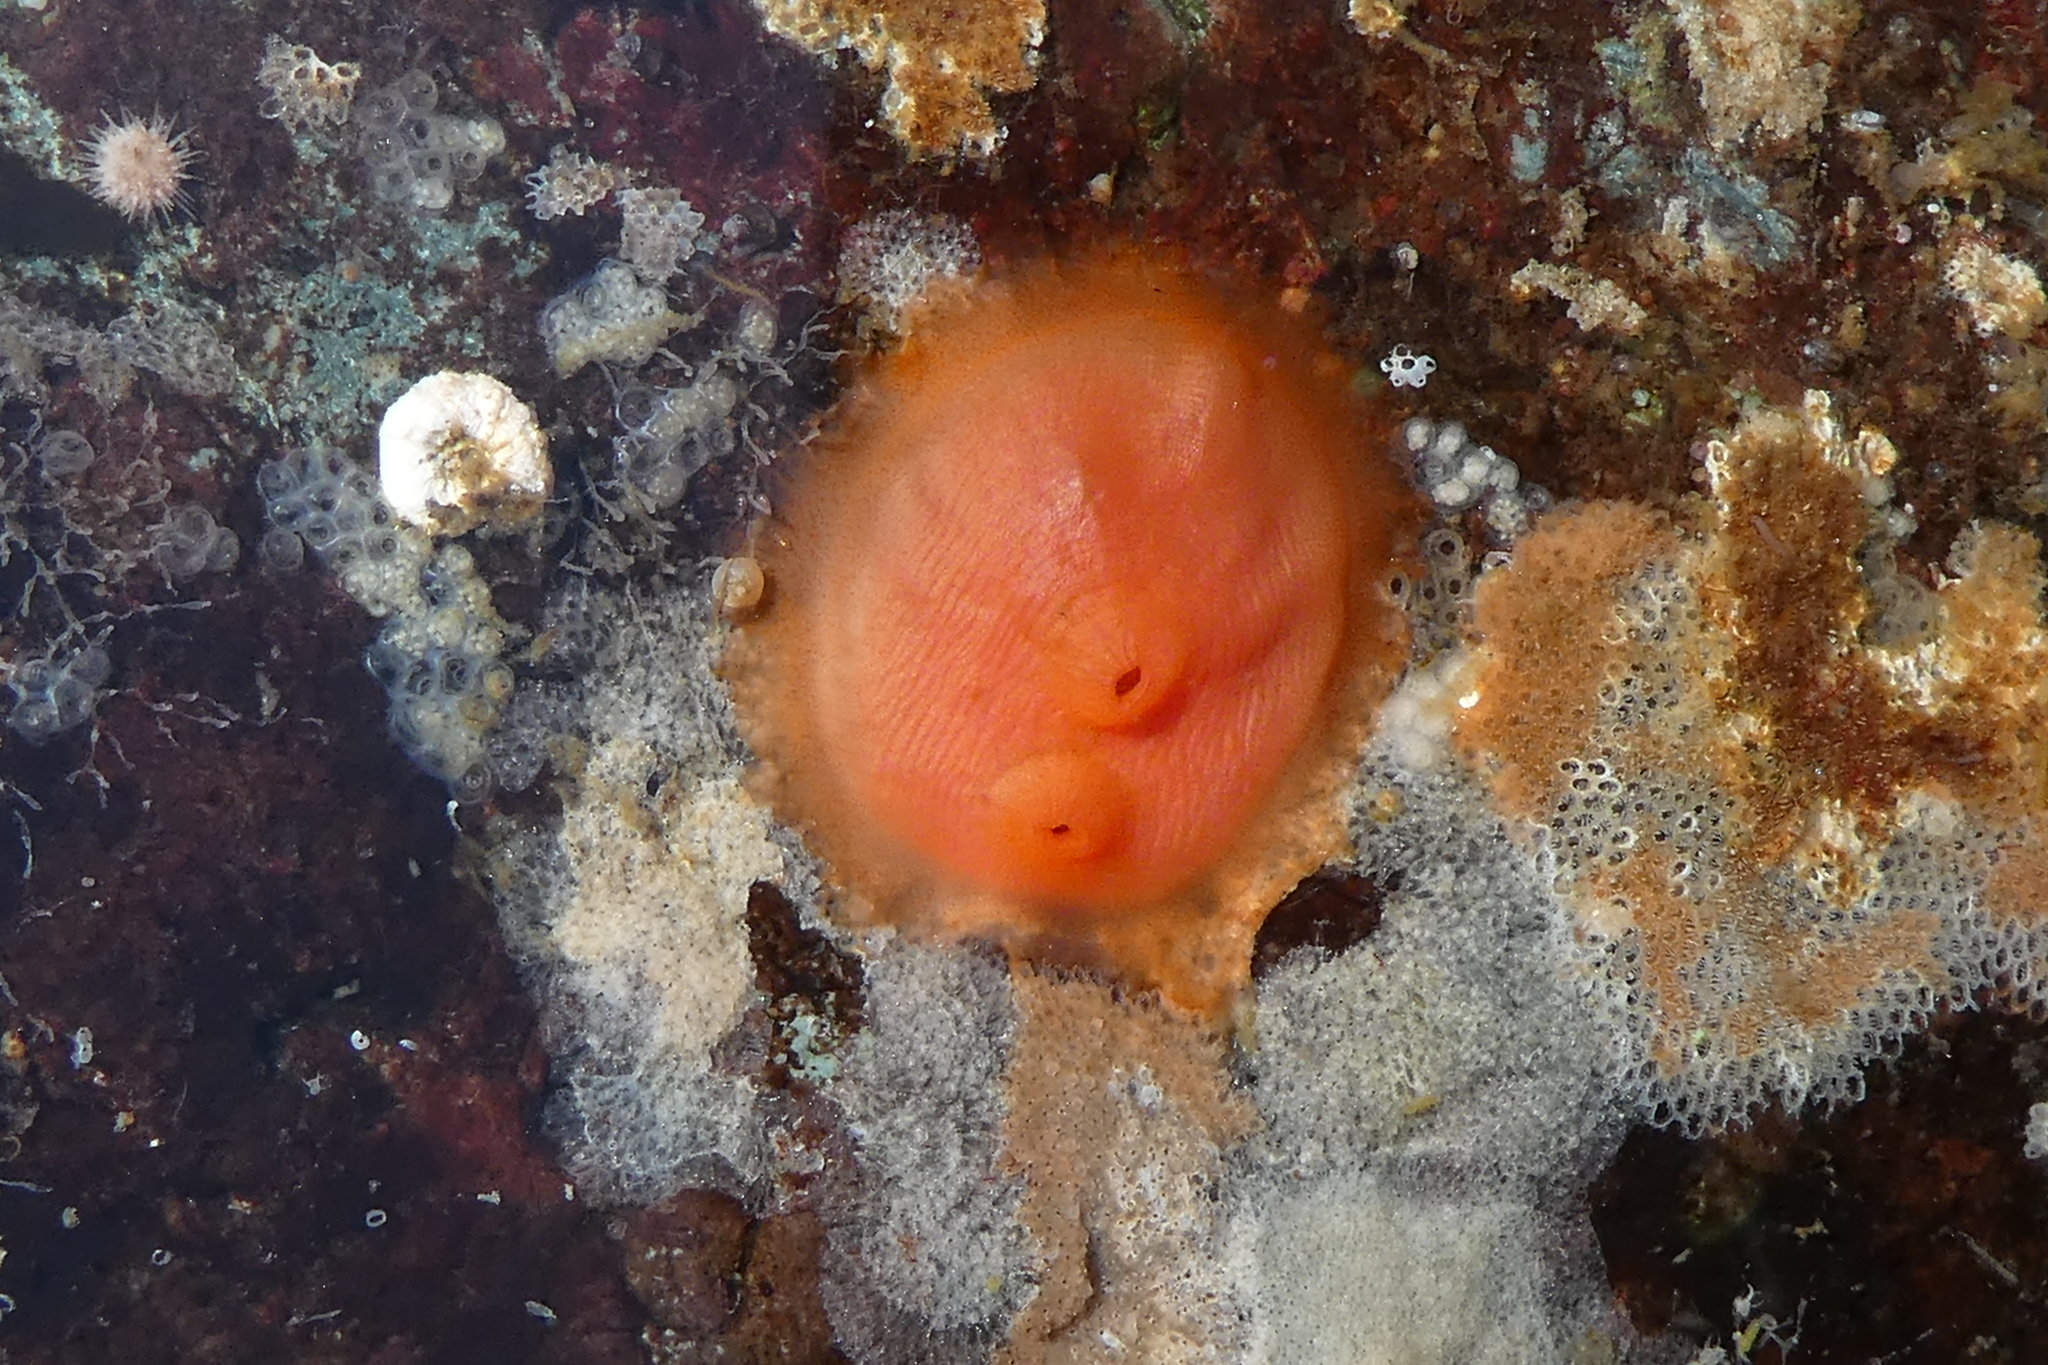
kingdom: Animalia
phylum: Chordata
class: Ascidiacea
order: Stolidobranchia
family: Styelidae
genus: Cnemidocarpa
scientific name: Cnemidocarpa finmarkiensis
